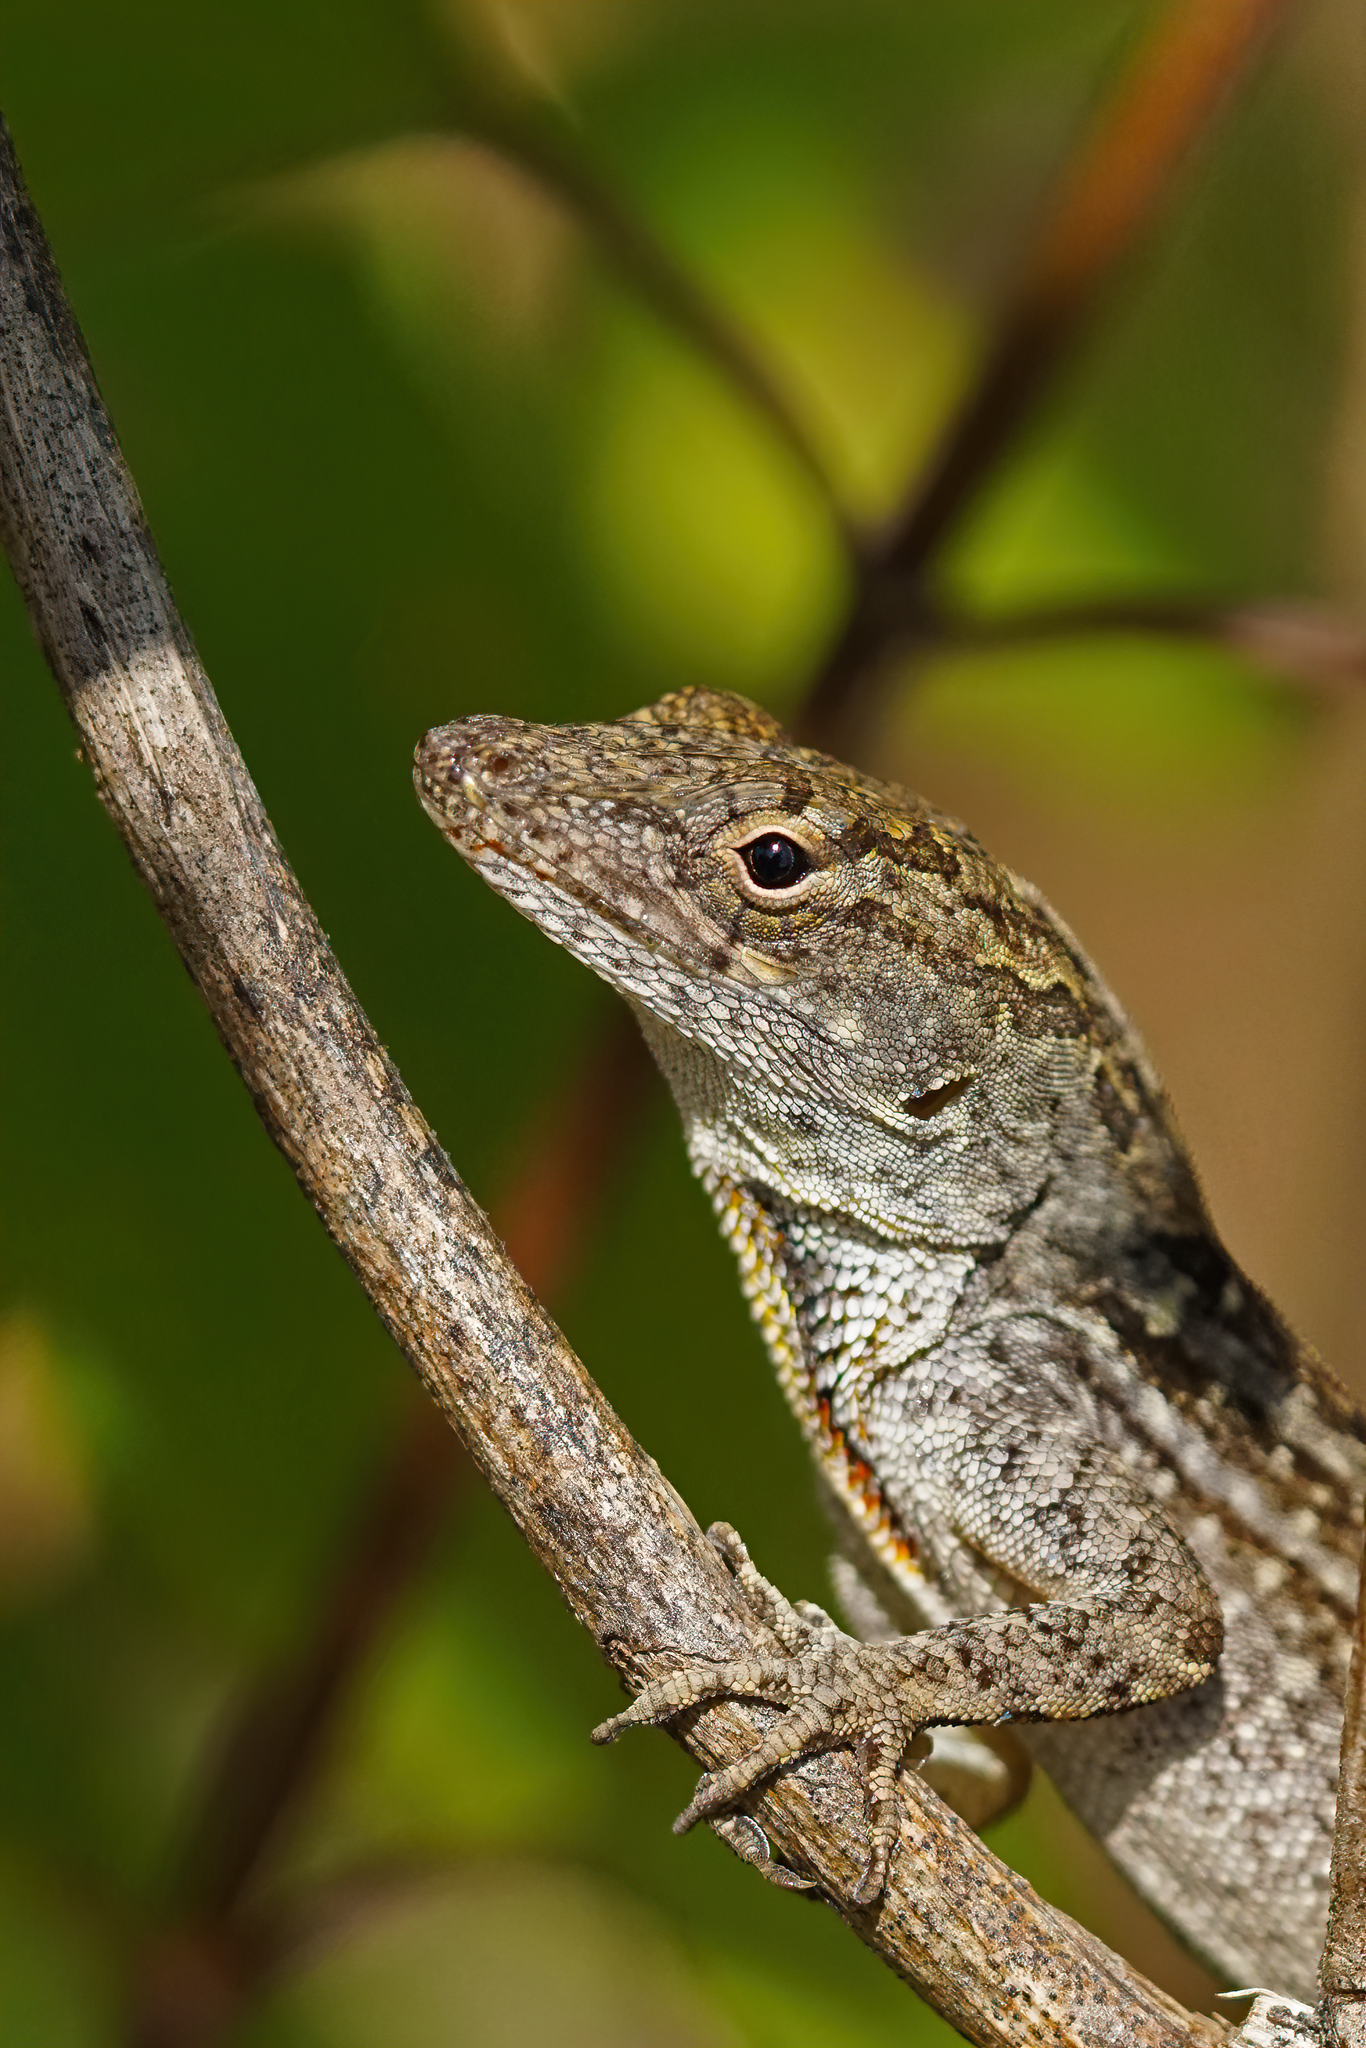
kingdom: Animalia
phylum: Chordata
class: Squamata
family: Dactyloidae
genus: Anolis
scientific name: Anolis sagrei
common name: Brown anole
